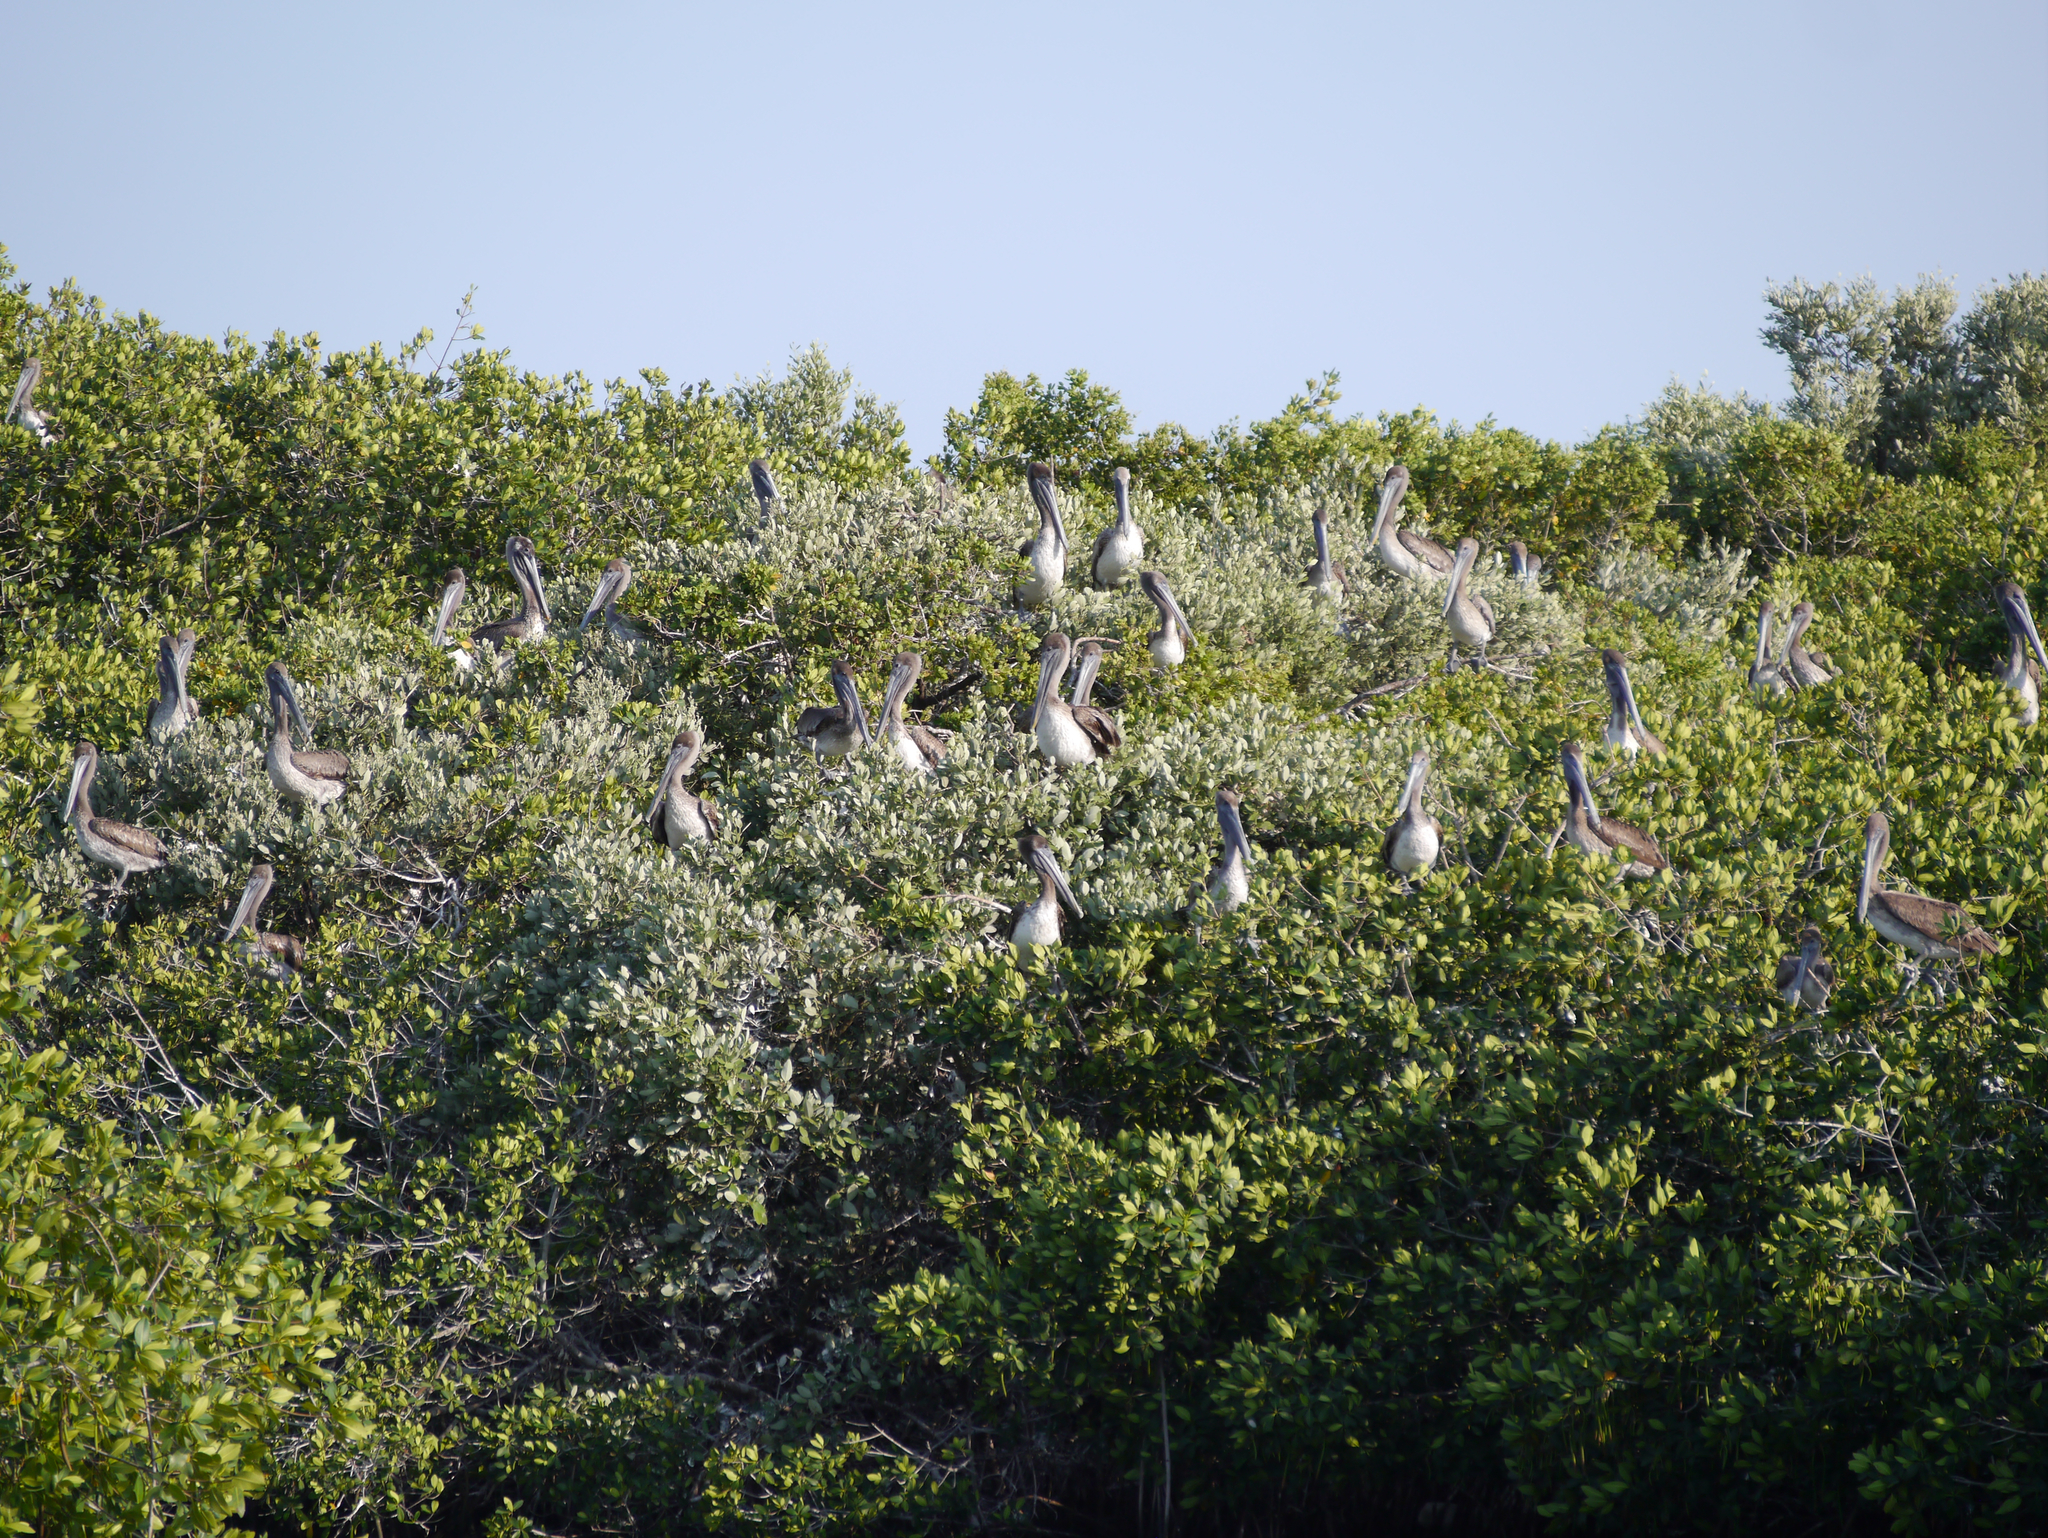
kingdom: Animalia
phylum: Chordata
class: Aves
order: Pelecaniformes
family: Pelecanidae
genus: Pelecanus
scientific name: Pelecanus occidentalis
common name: Brown pelican
